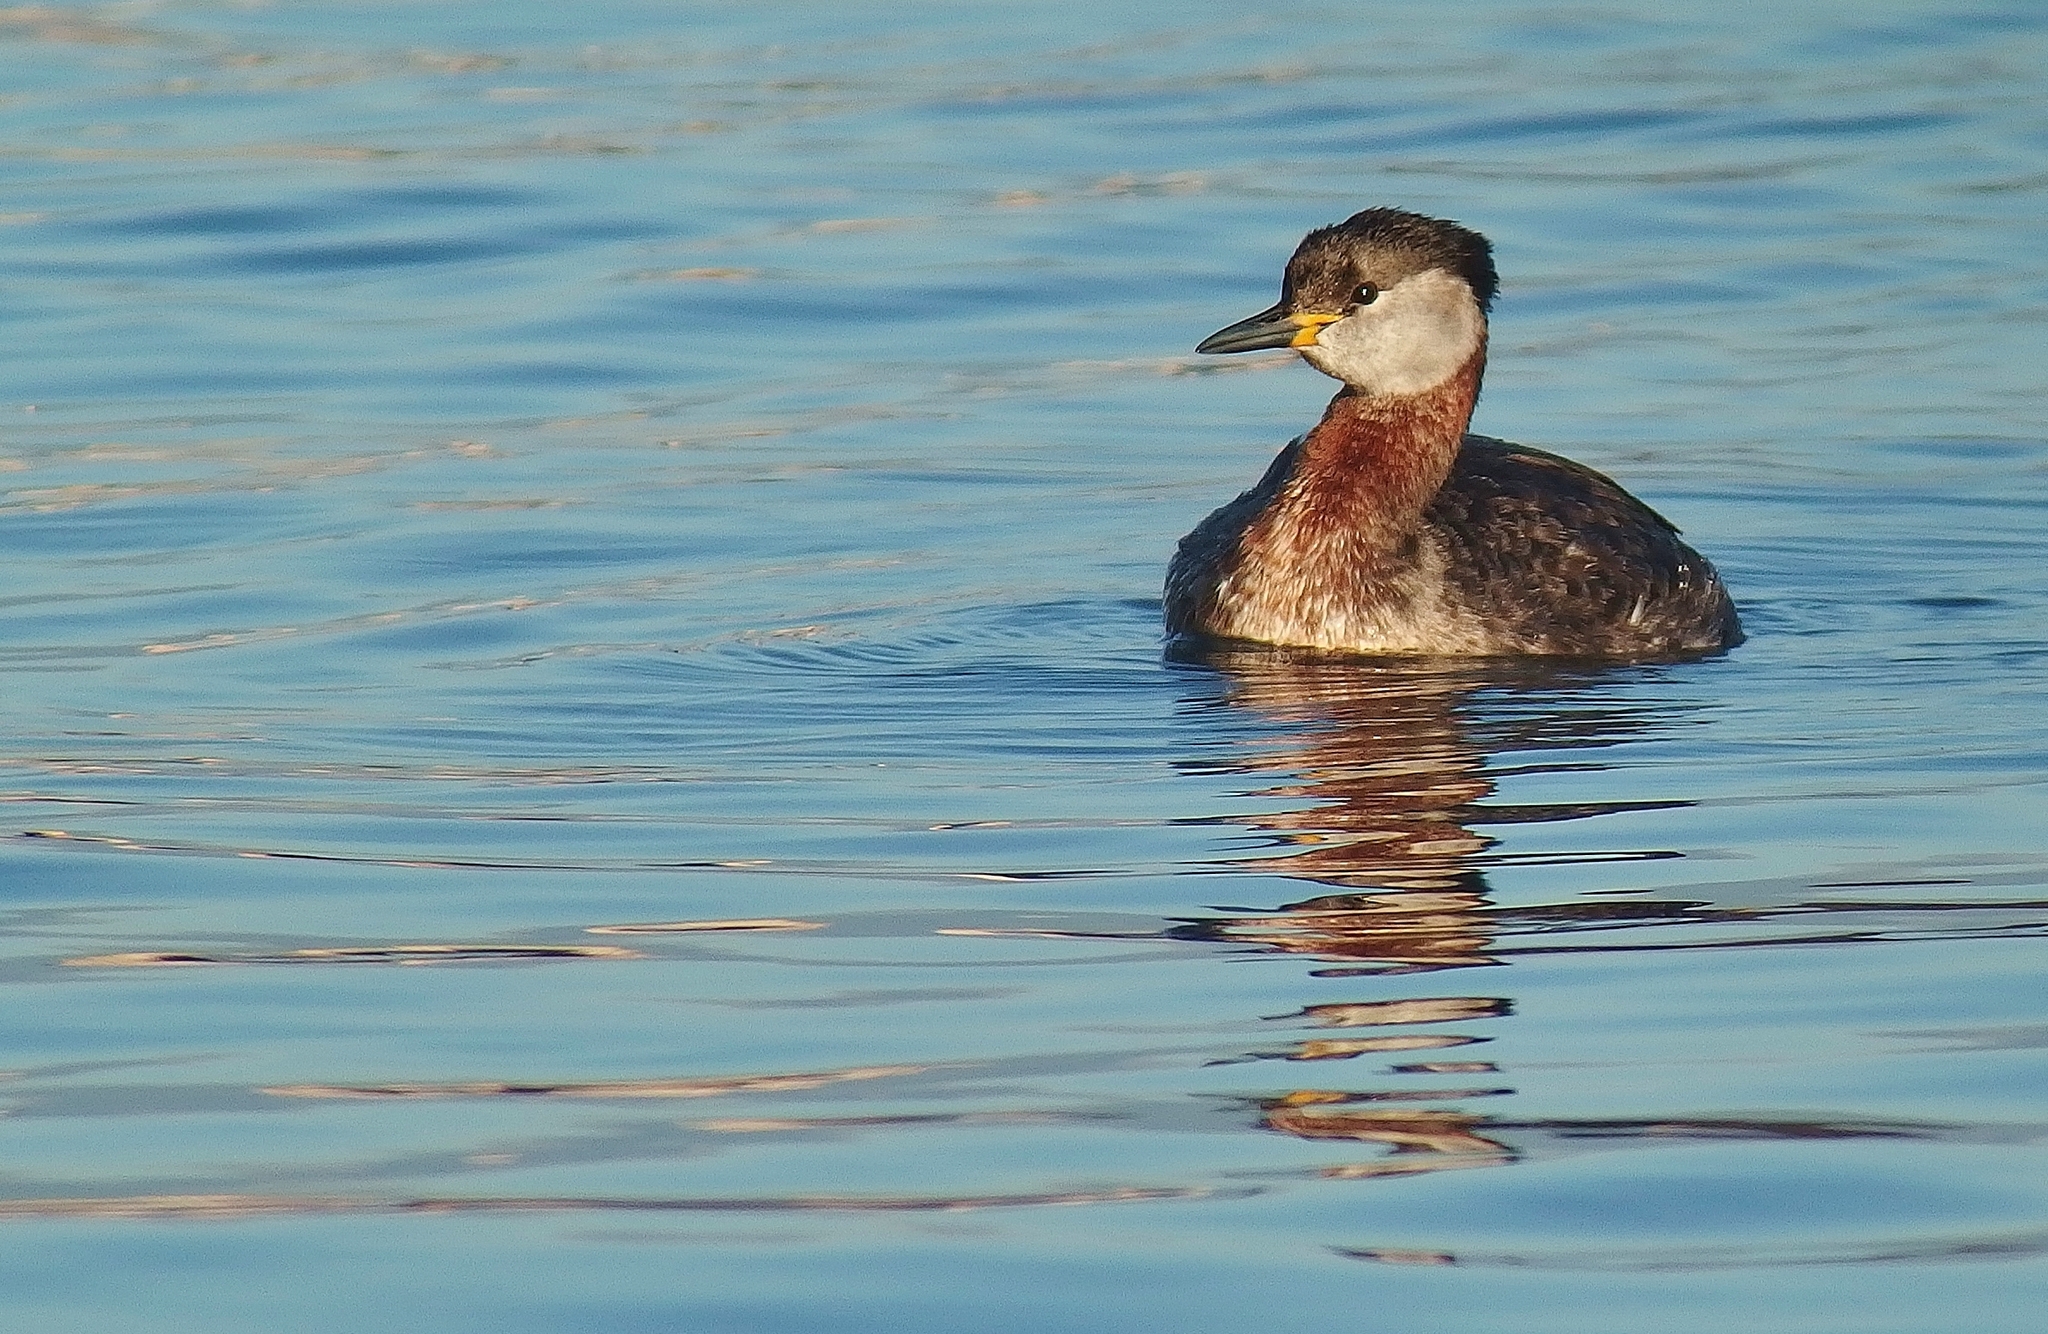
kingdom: Animalia
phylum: Chordata
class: Aves
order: Podicipediformes
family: Podicipedidae
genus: Podiceps
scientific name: Podiceps grisegena
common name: Red-necked grebe
